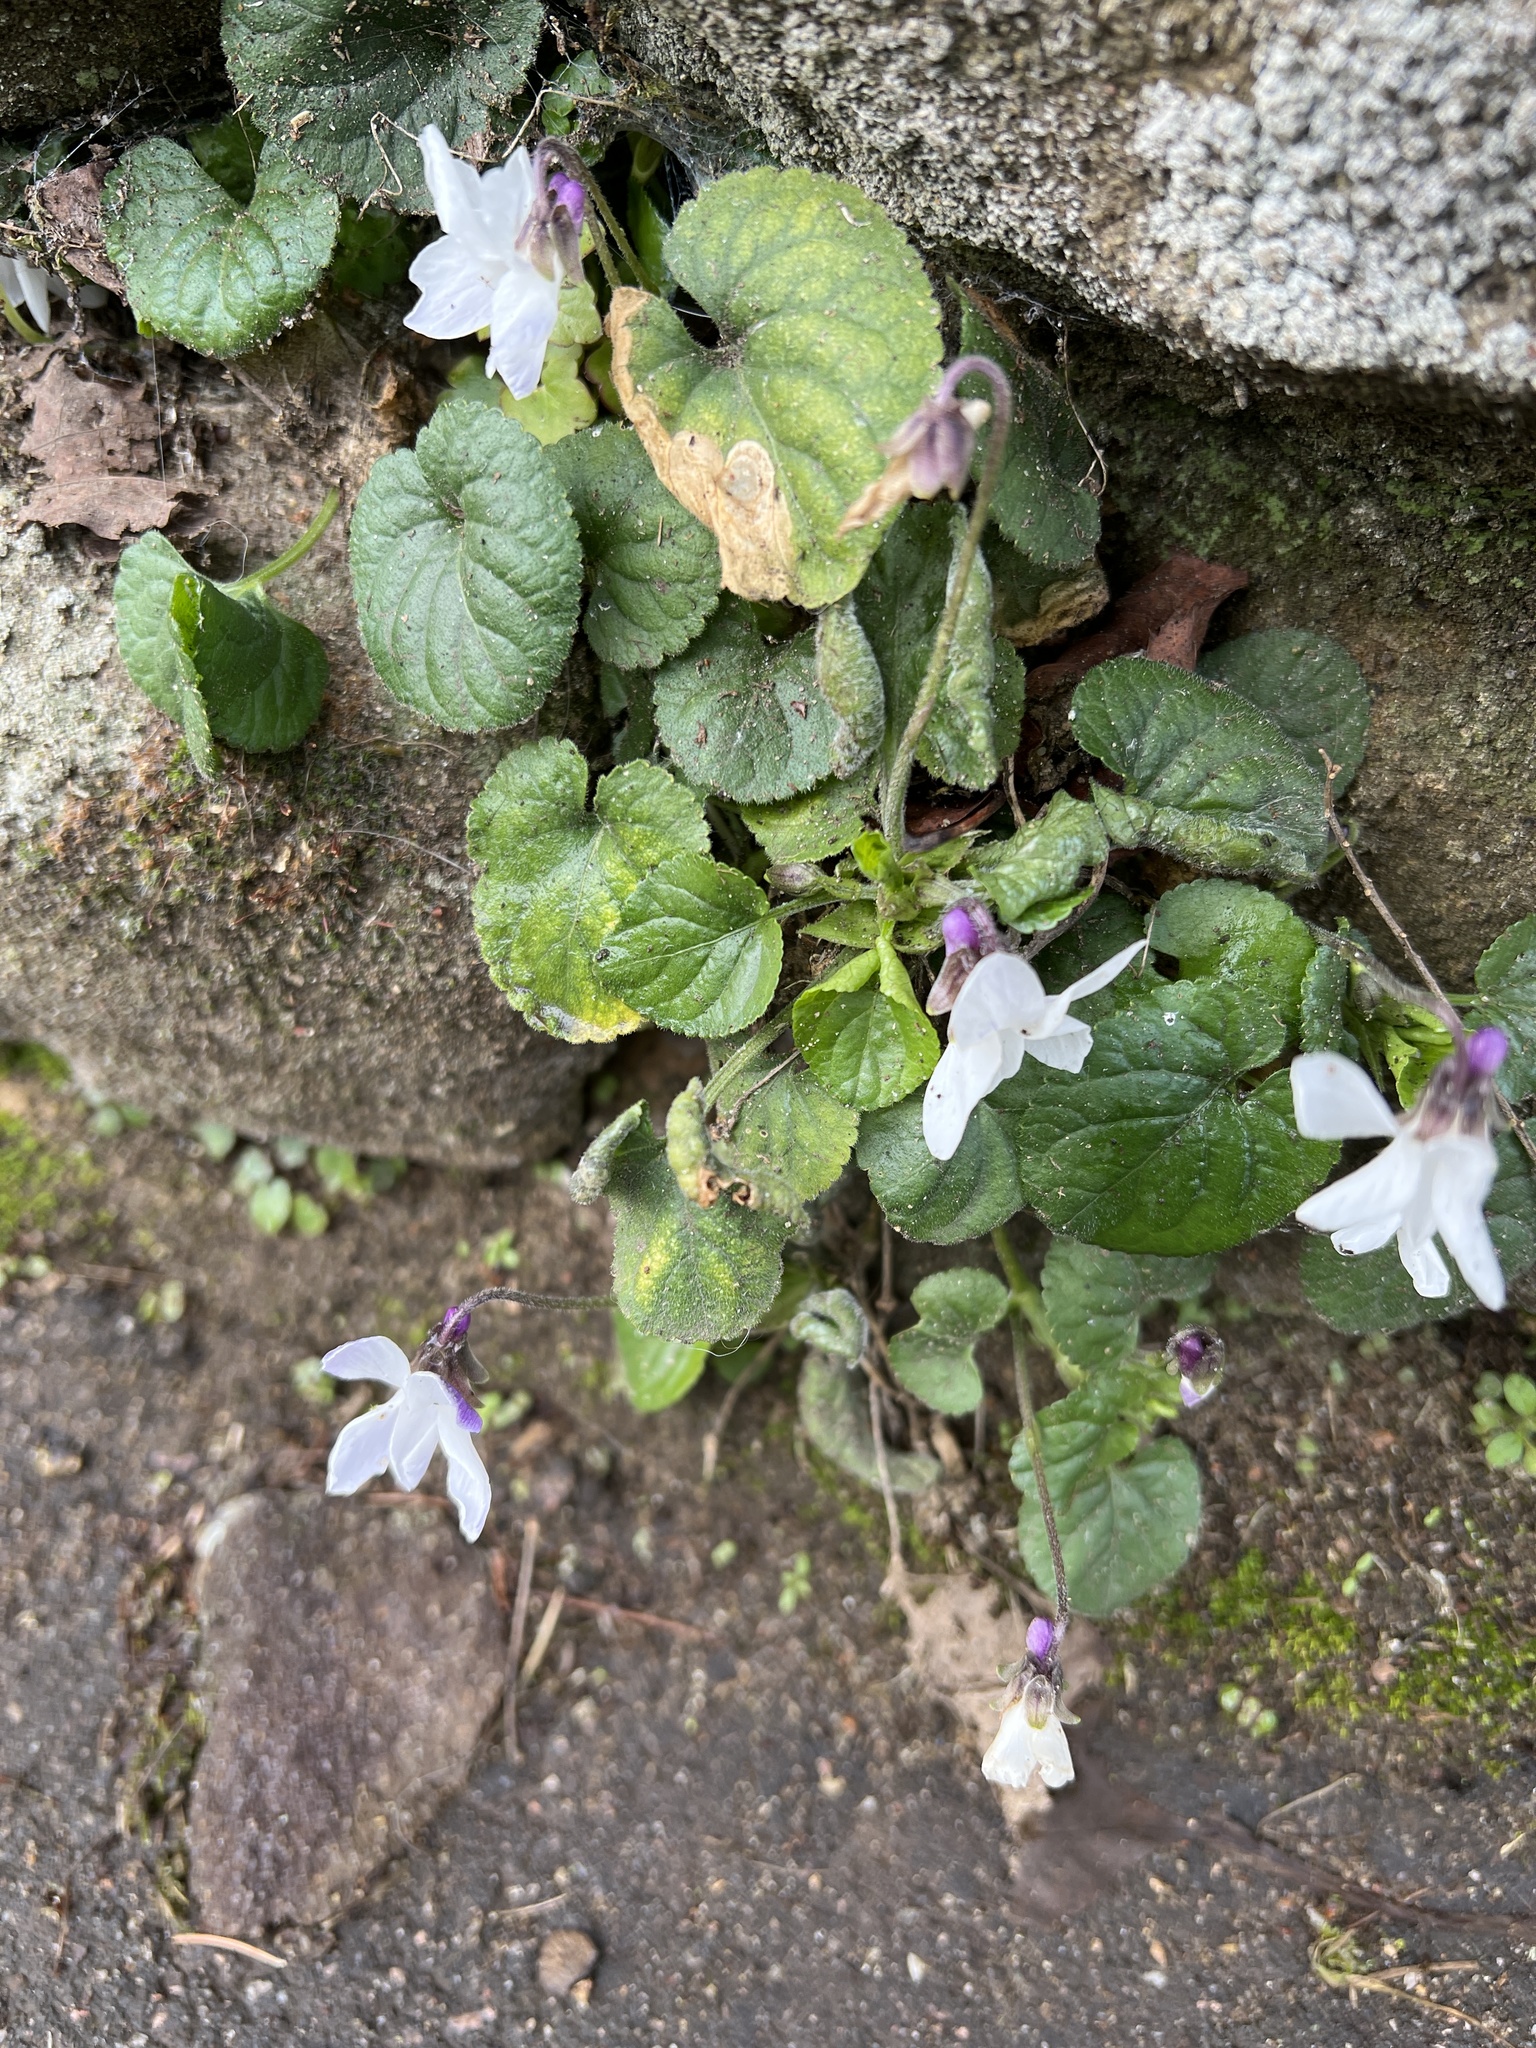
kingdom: Plantae
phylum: Tracheophyta
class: Magnoliopsida
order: Malpighiales
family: Violaceae
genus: Viola
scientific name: Viola odorata
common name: Sweet violet
